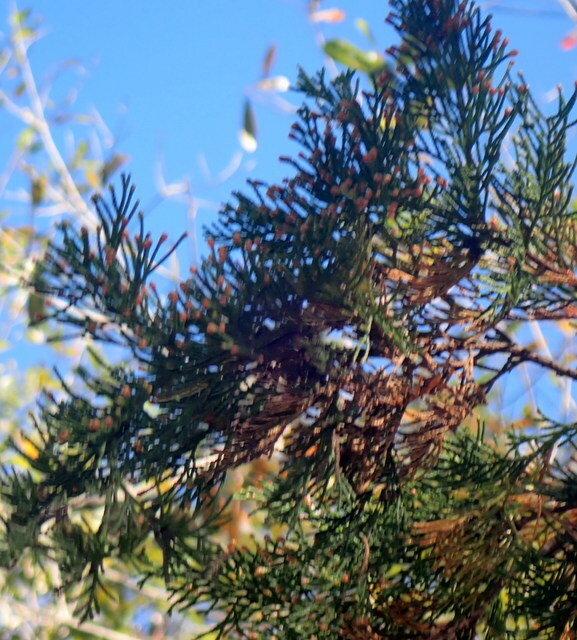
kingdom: Plantae
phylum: Tracheophyta
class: Pinopsida
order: Pinales
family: Cupressaceae
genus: Chamaecyparis
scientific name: Chamaecyparis thyoides
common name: Atlantic white cedar
